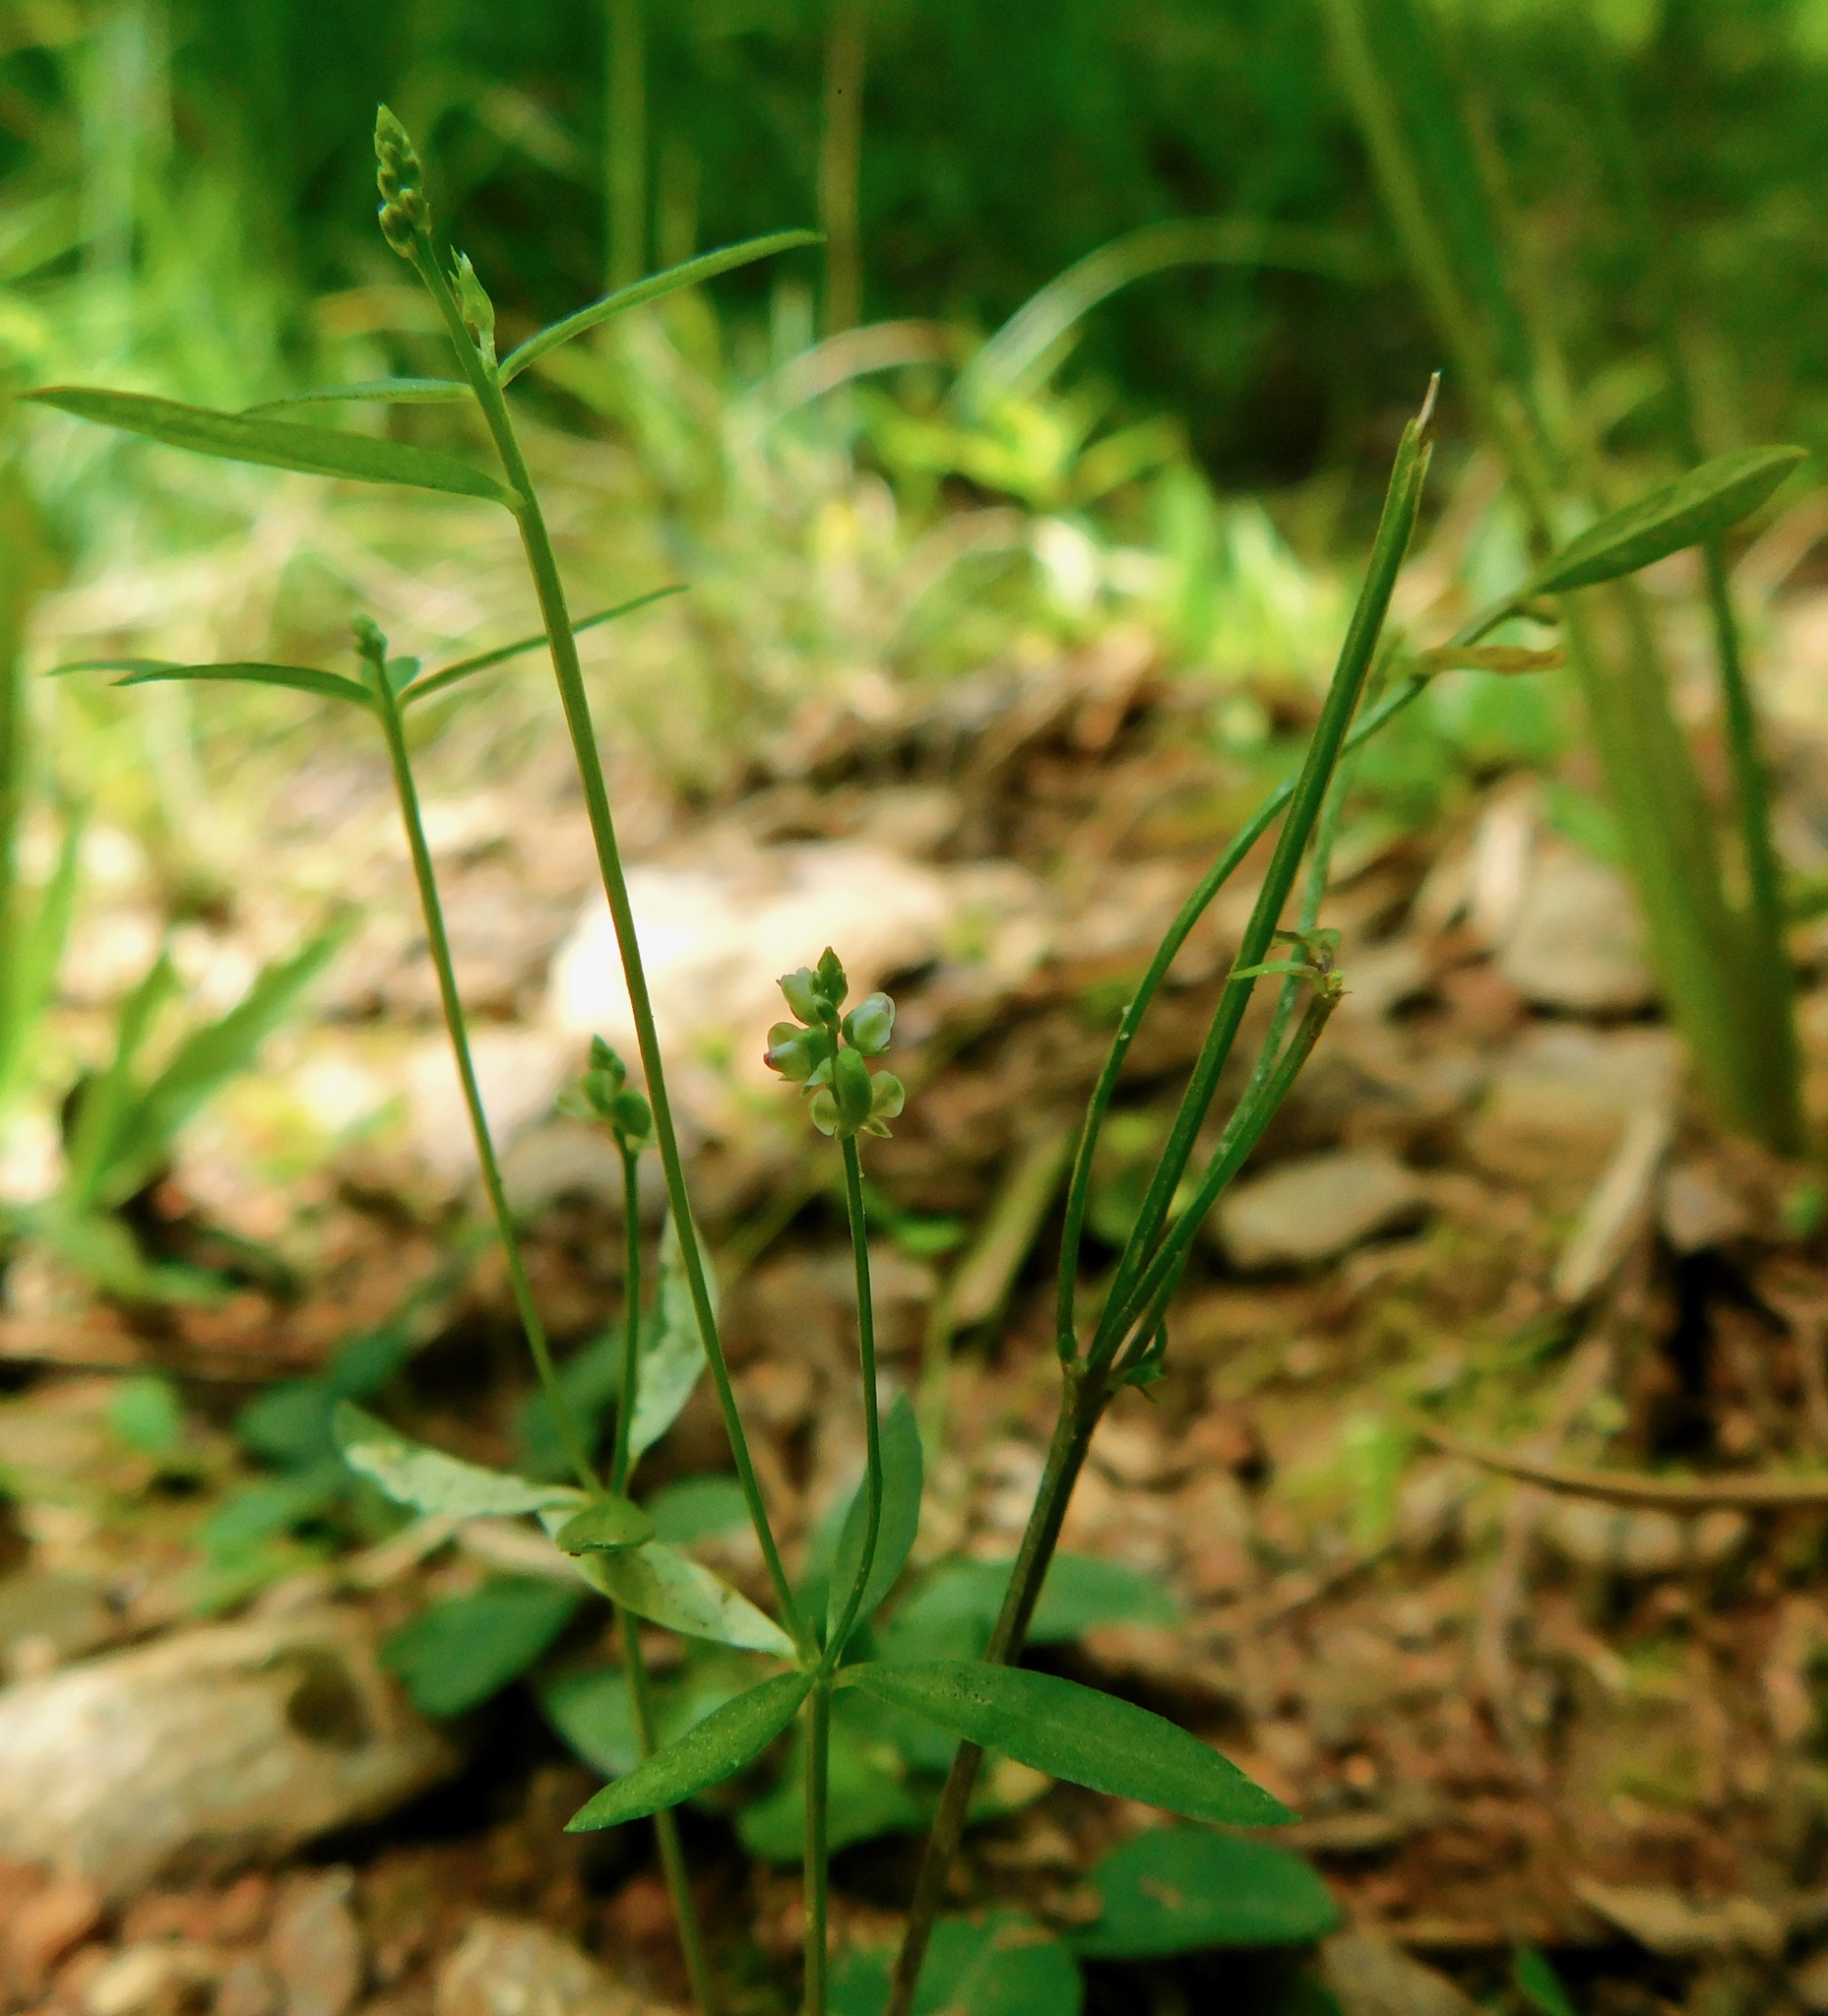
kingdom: Plantae
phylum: Tracheophyta
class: Magnoliopsida
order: Fabales
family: Polygalaceae
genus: Polygala
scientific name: Polygala verticillata
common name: Whorl milkwort
